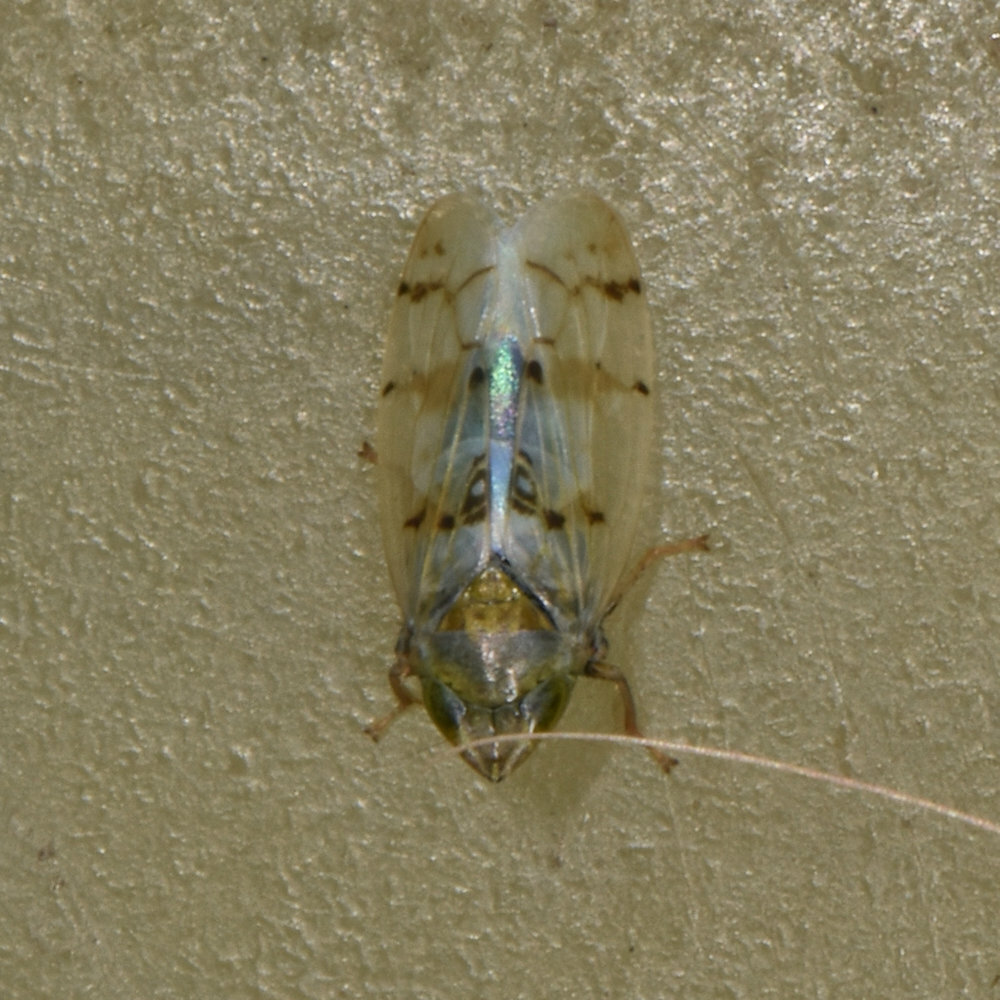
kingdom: Animalia
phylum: Arthropoda
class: Insecta
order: Hemiptera
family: Cicadellidae
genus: Japananus
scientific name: Japananus hyalinus
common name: The japanese maple leafhopper
